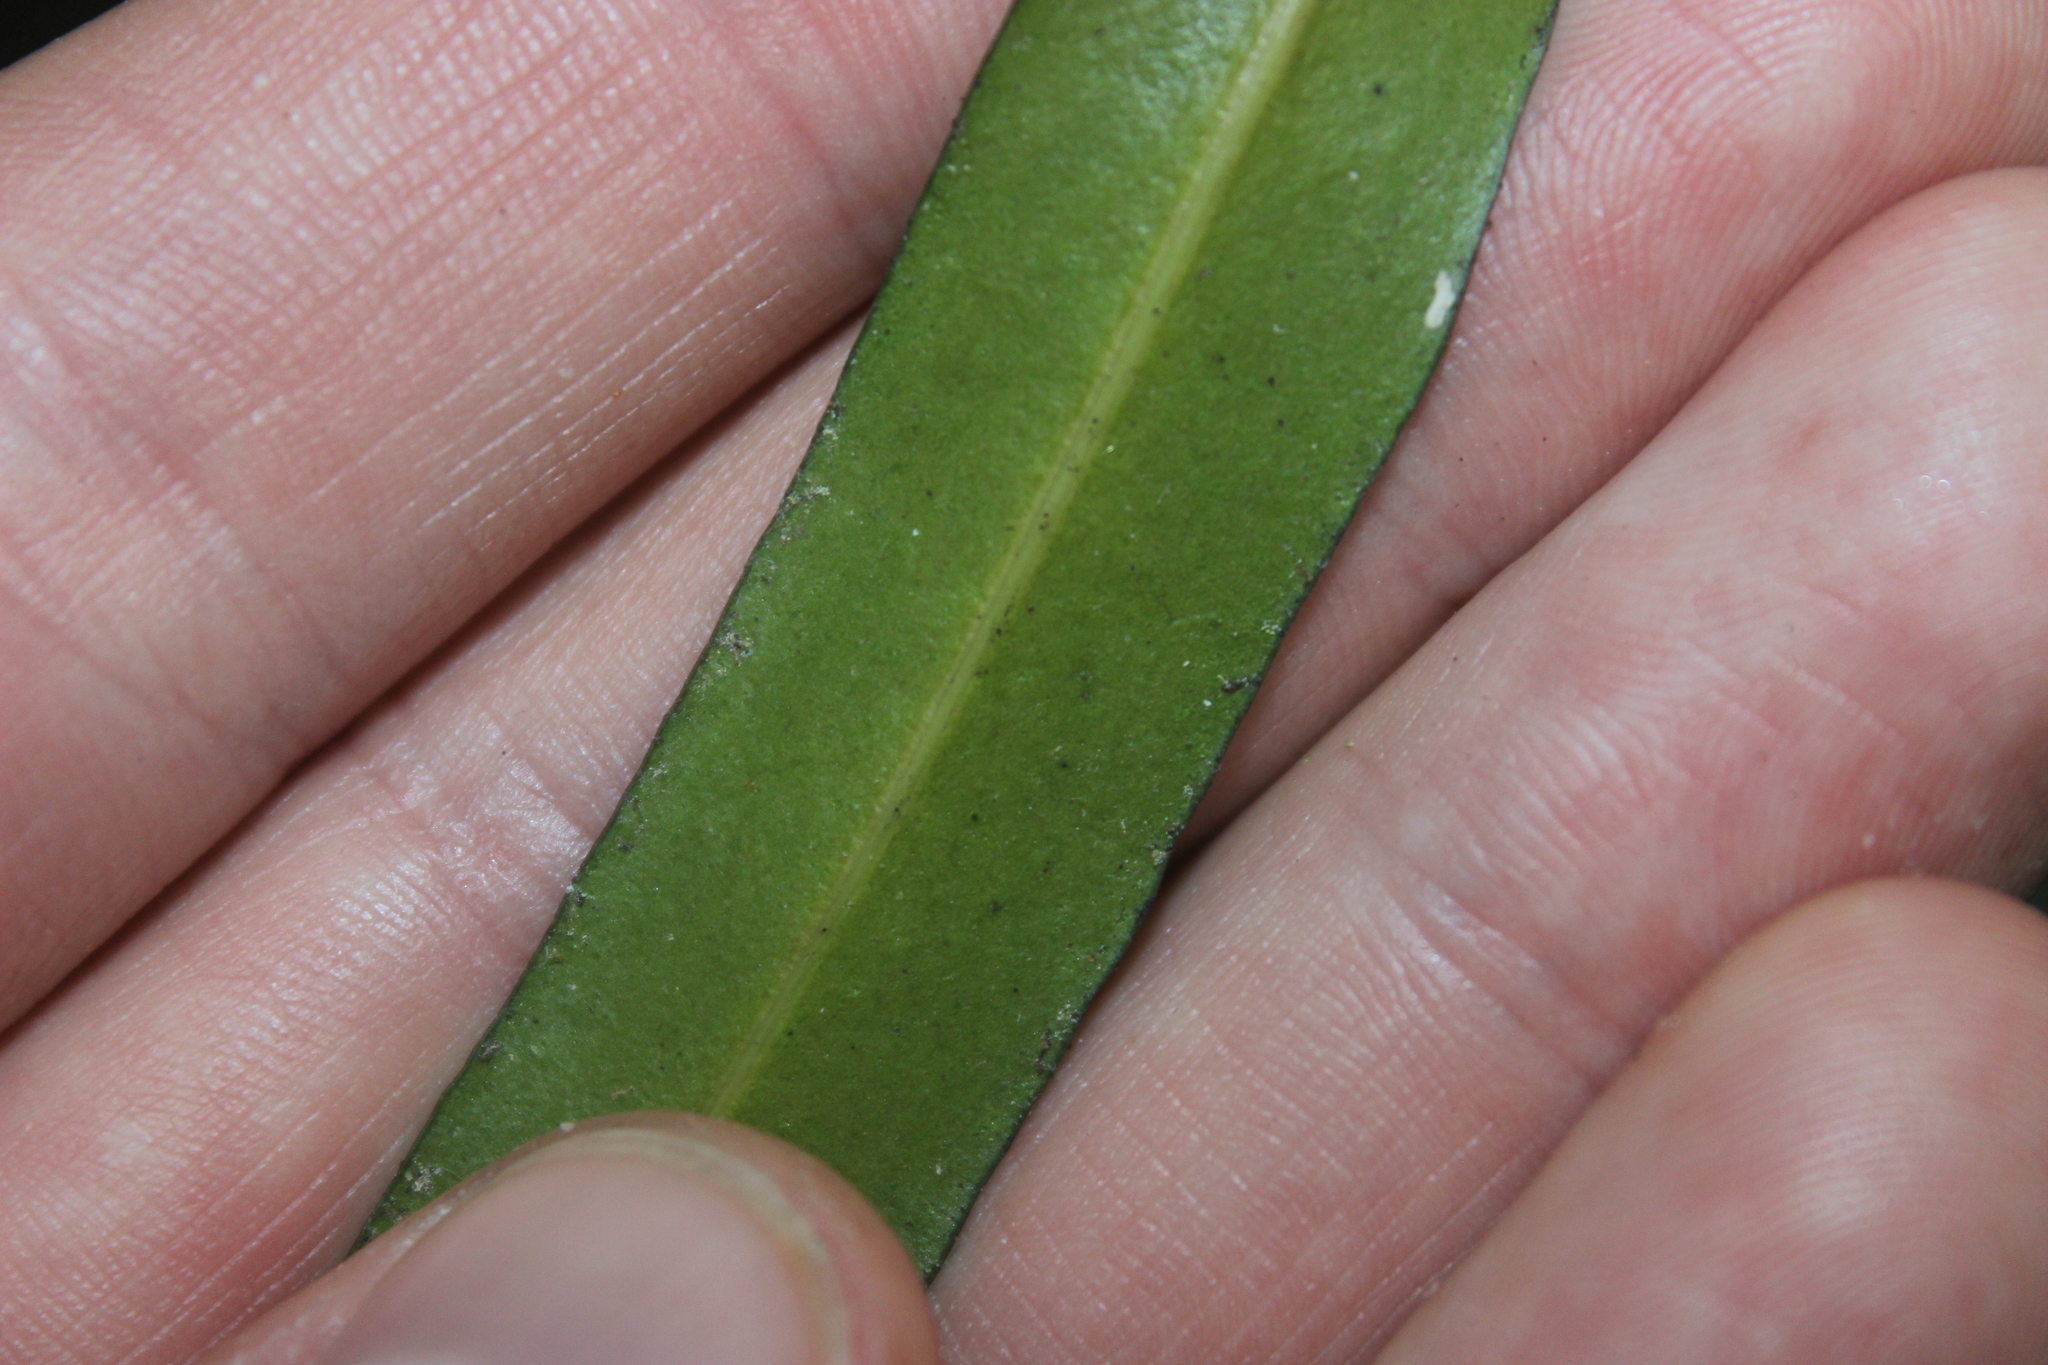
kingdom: Plantae
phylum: Tracheophyta
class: Magnoliopsida
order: Lamiales
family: Oleaceae
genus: Nestegis
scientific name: Nestegis lanceolata
